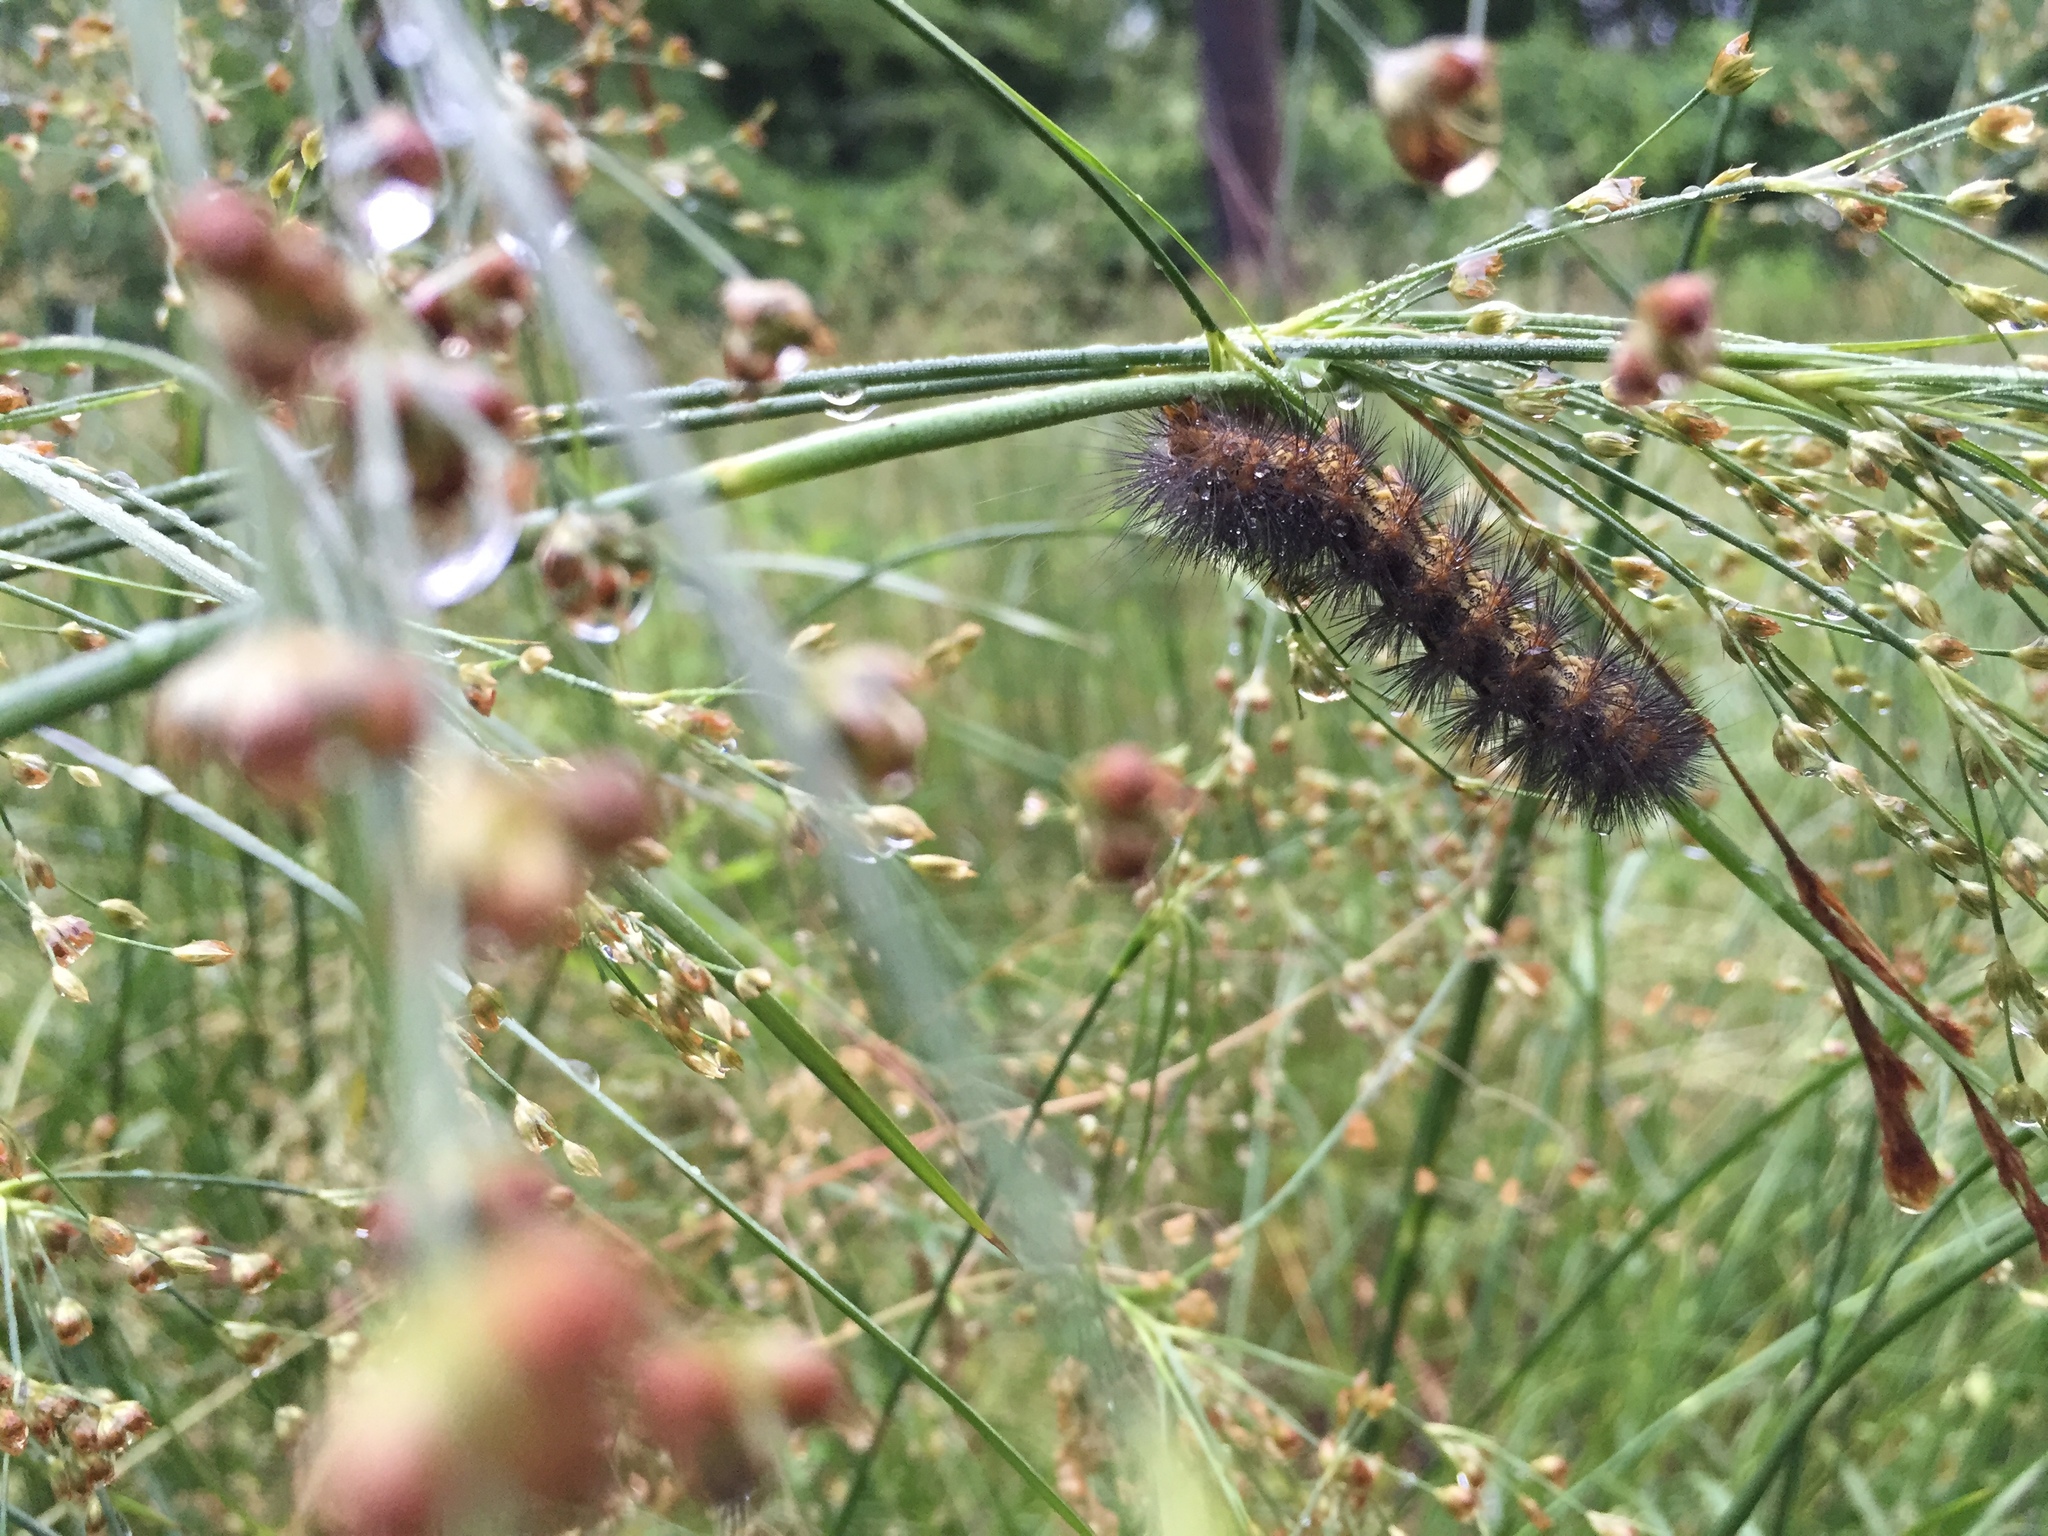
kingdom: Animalia
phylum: Arthropoda
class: Insecta
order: Lepidoptera
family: Erebidae
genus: Estigmene
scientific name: Estigmene acrea
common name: Salt marsh moth
